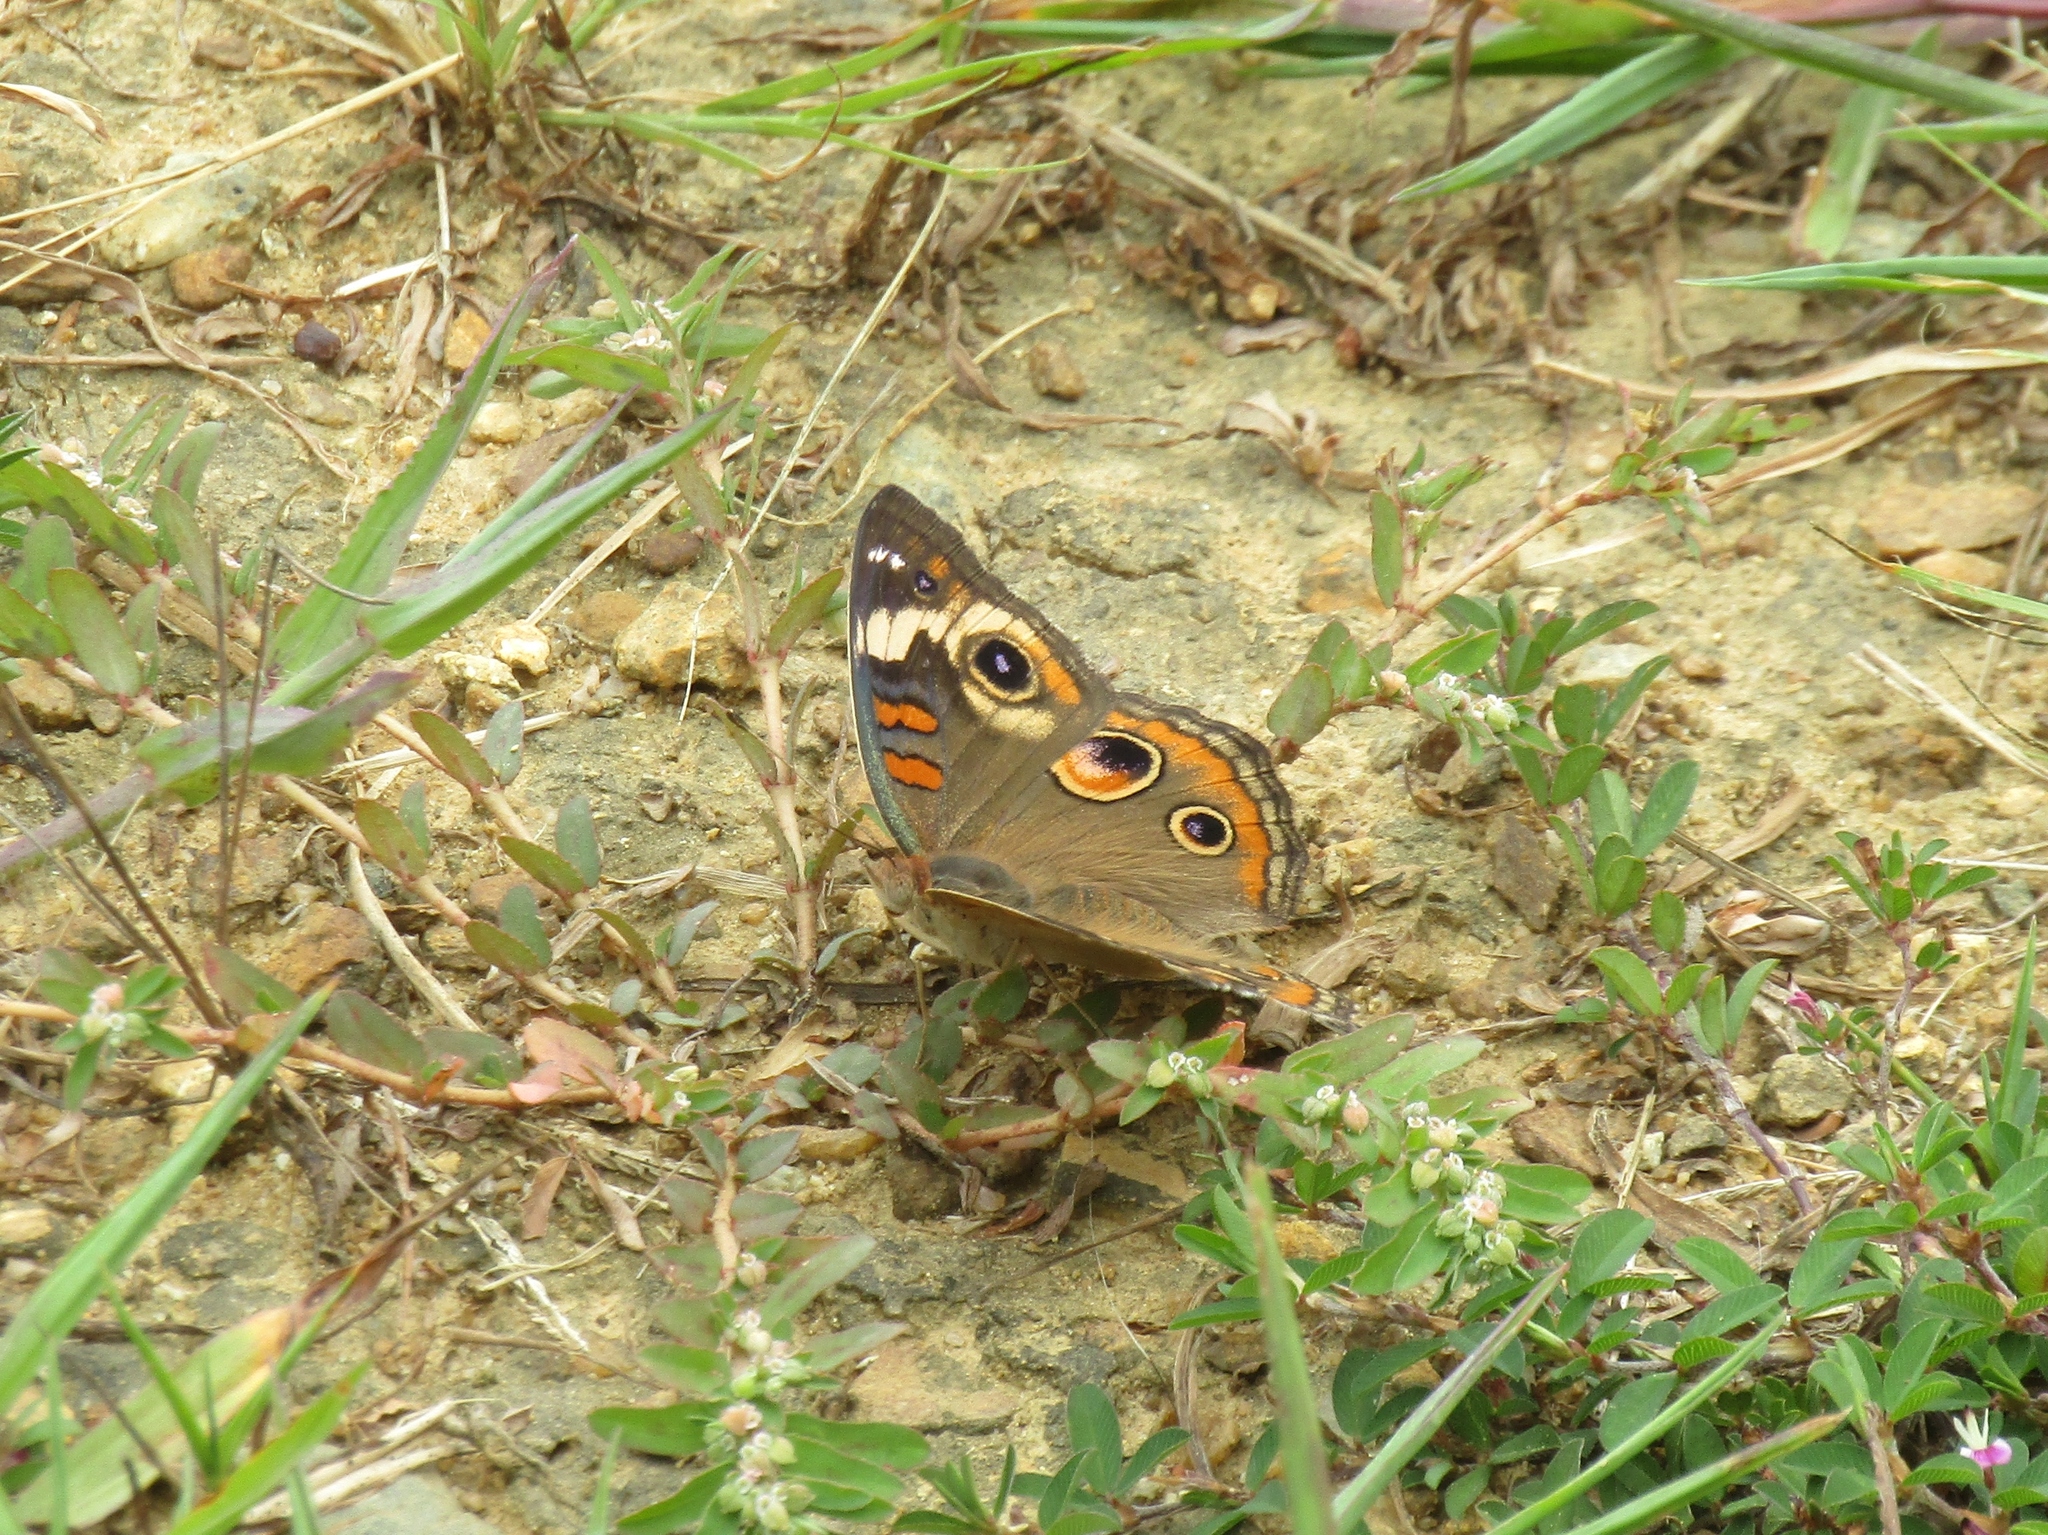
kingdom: Animalia
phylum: Arthropoda
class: Insecta
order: Lepidoptera
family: Nymphalidae
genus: Junonia
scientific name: Junonia coenia
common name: Common buckeye
